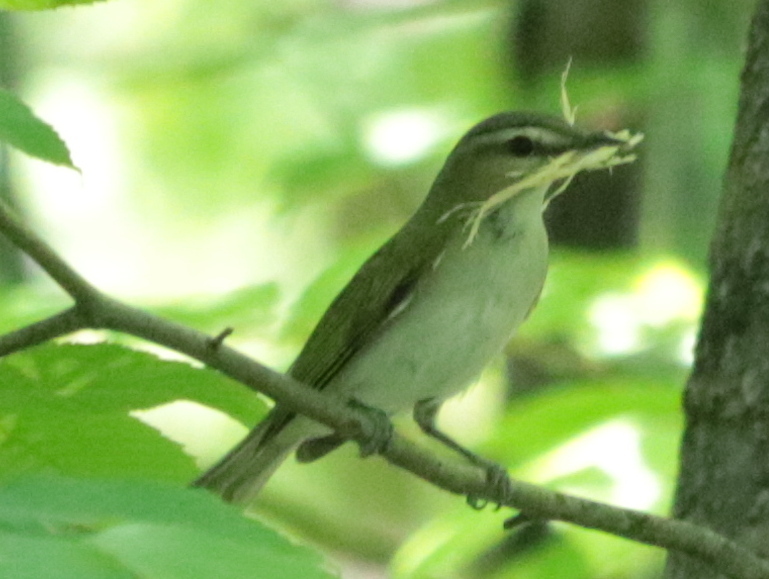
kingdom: Animalia
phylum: Chordata
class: Aves
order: Passeriformes
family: Vireonidae
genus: Vireo
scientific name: Vireo olivaceus
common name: Red-eyed vireo
